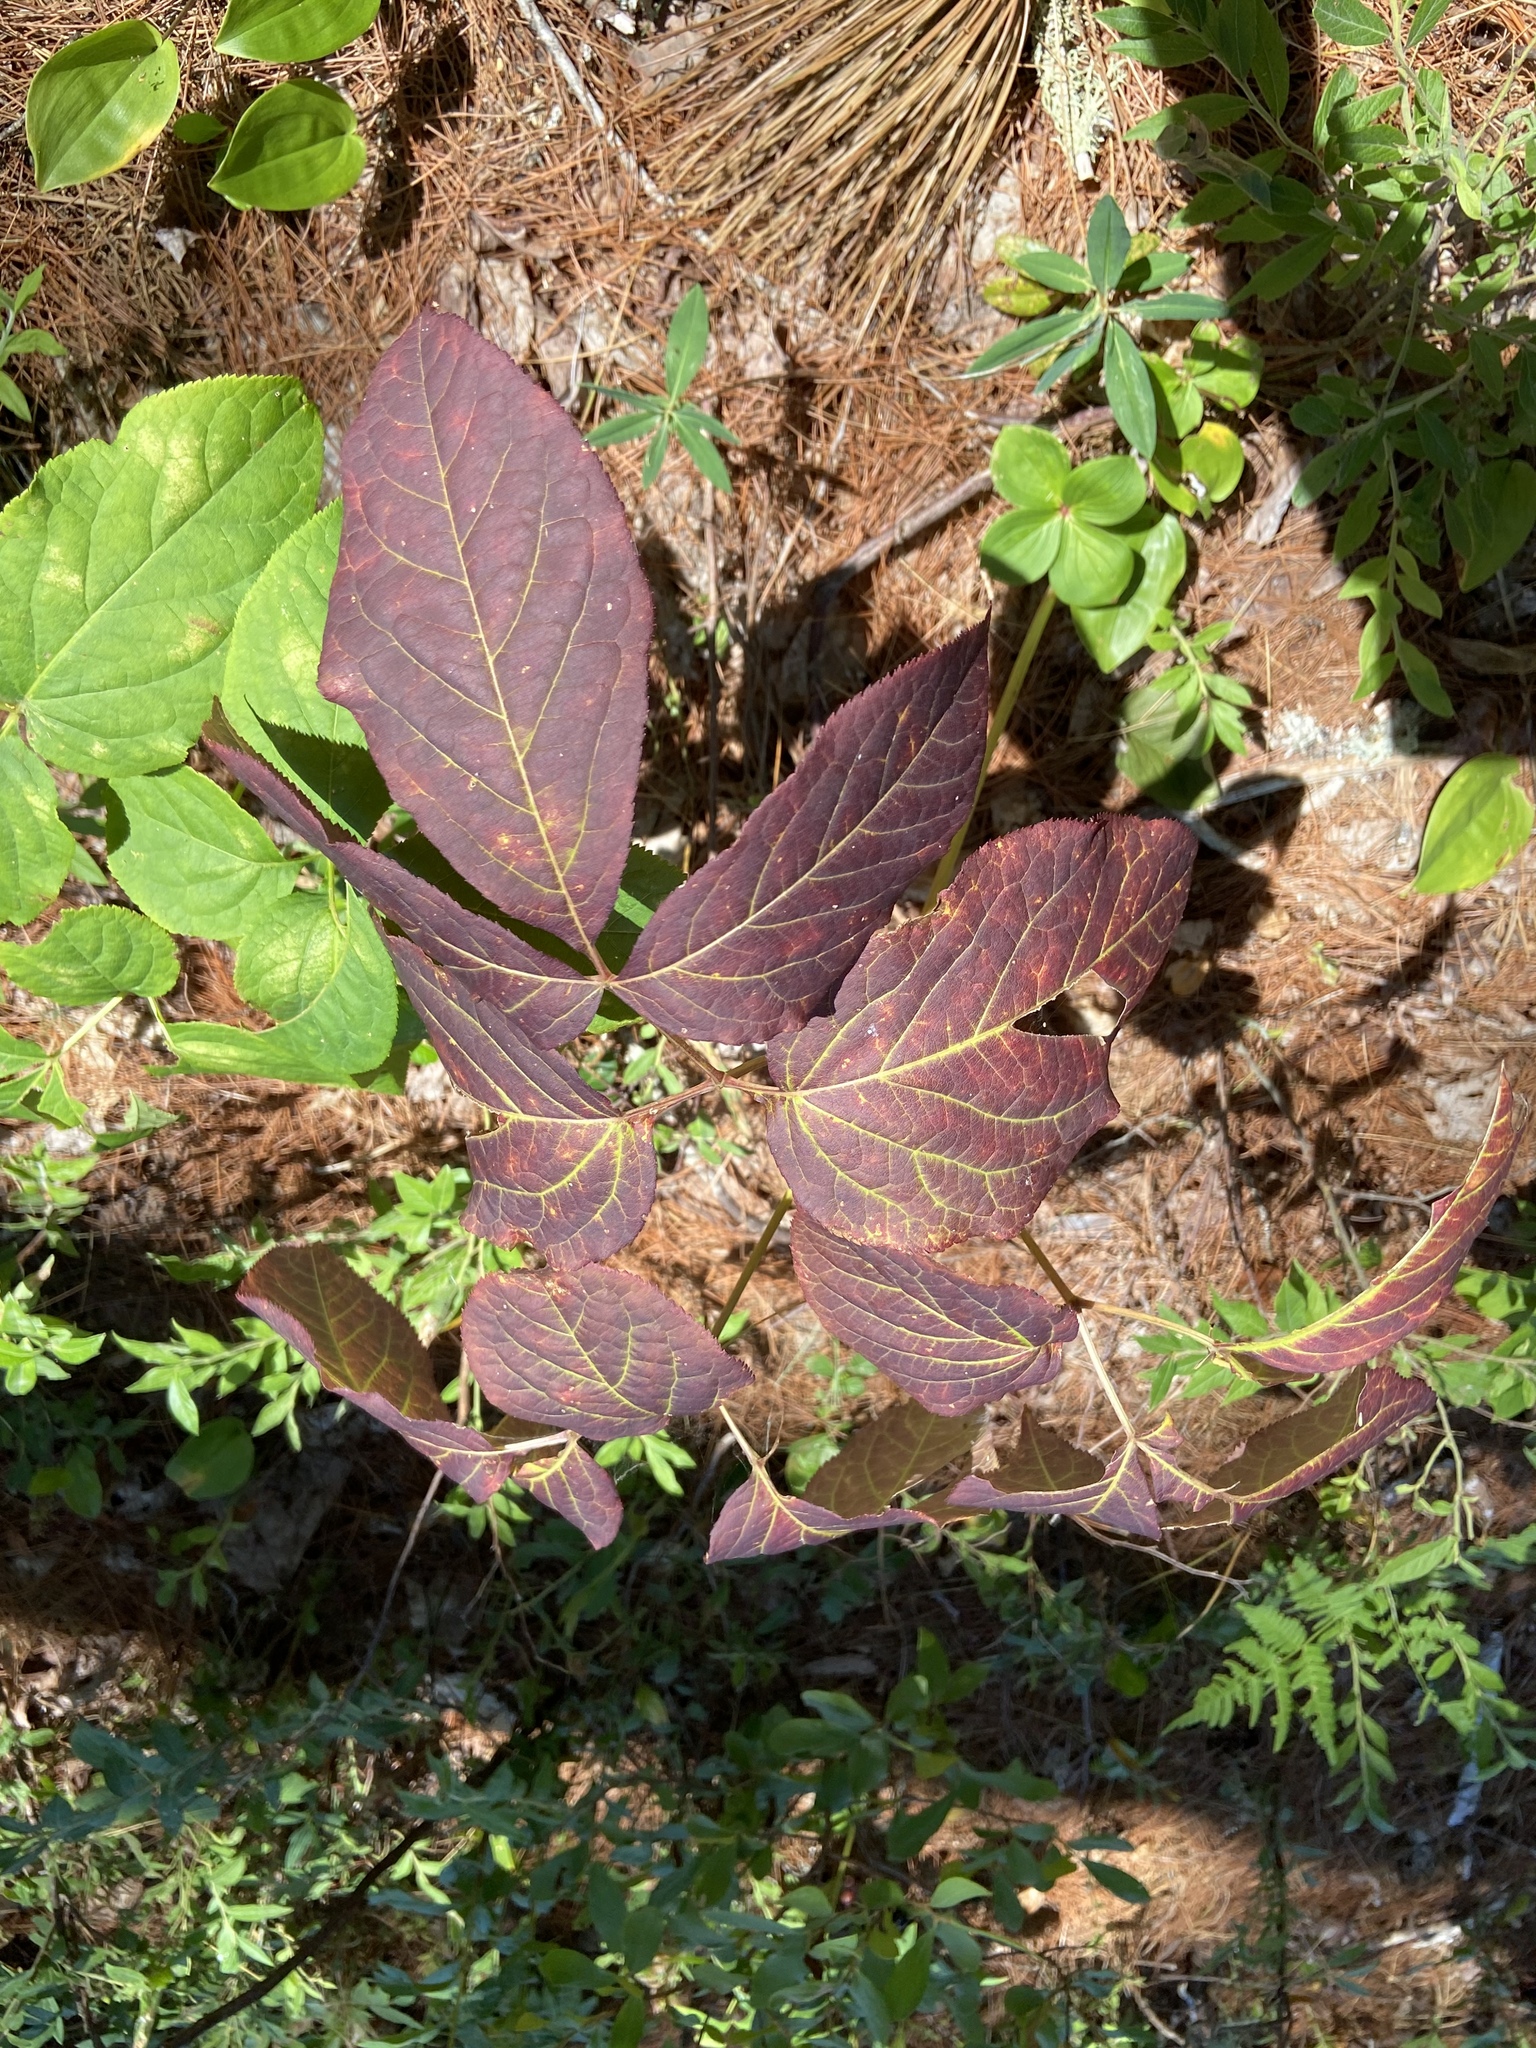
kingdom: Plantae
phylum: Tracheophyta
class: Magnoliopsida
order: Apiales
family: Araliaceae
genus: Aralia
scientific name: Aralia nudicaulis
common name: Wild sarsaparilla
